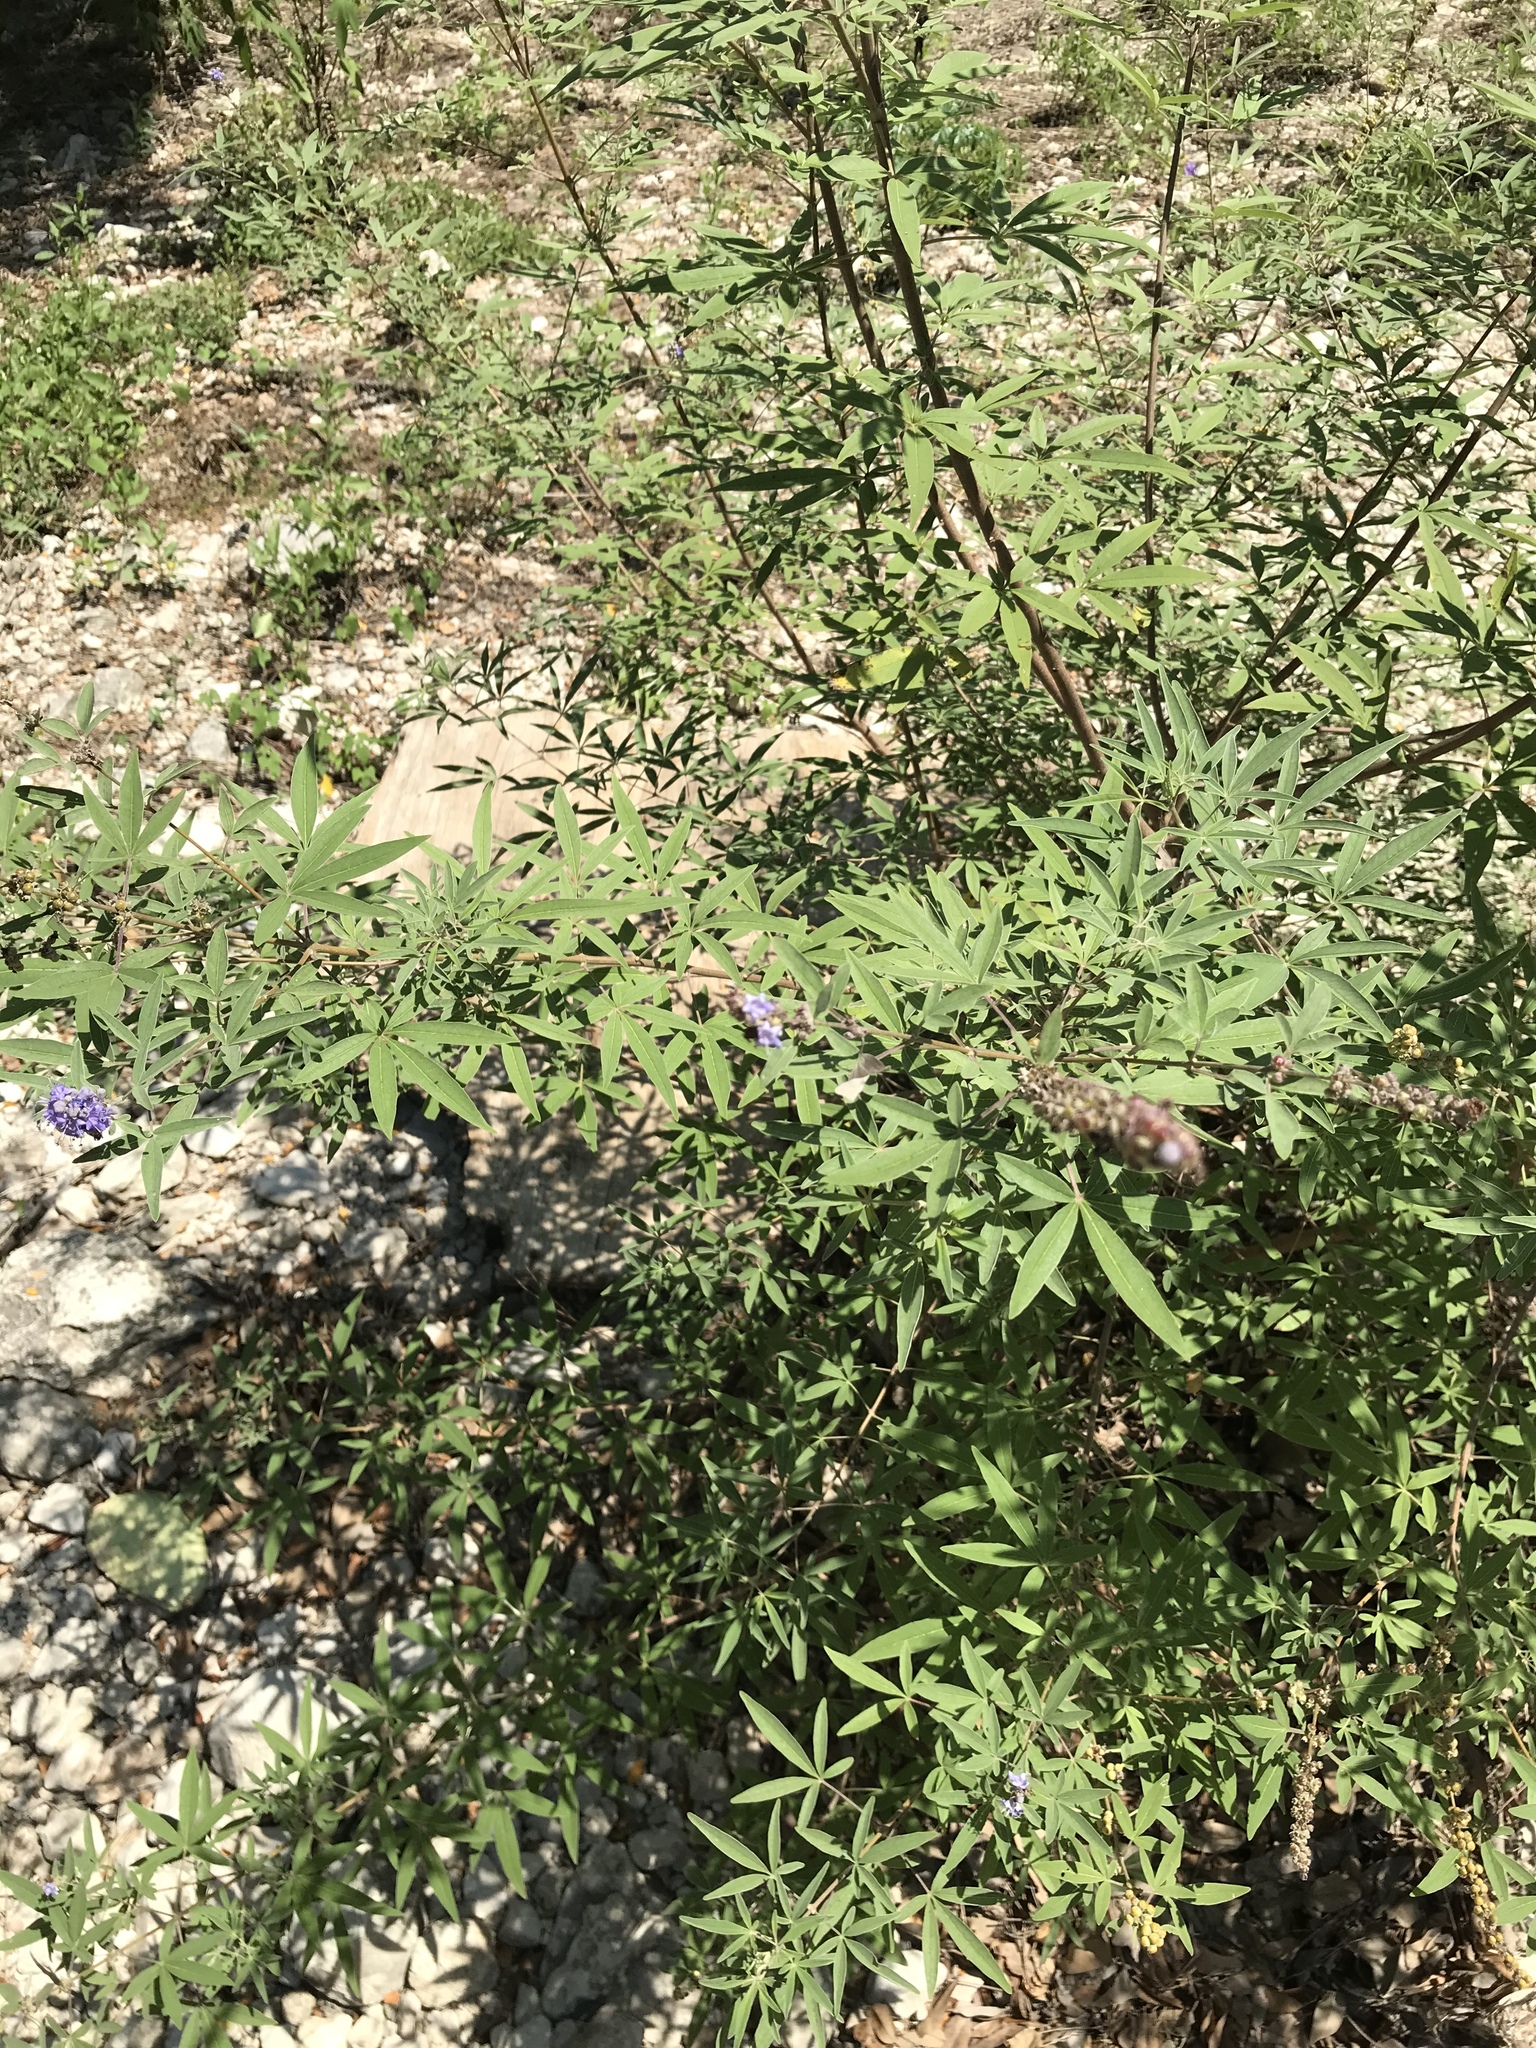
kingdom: Plantae
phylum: Tracheophyta
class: Magnoliopsida
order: Lamiales
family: Lamiaceae
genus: Vitex
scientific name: Vitex agnus-castus
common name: Chasteberry
